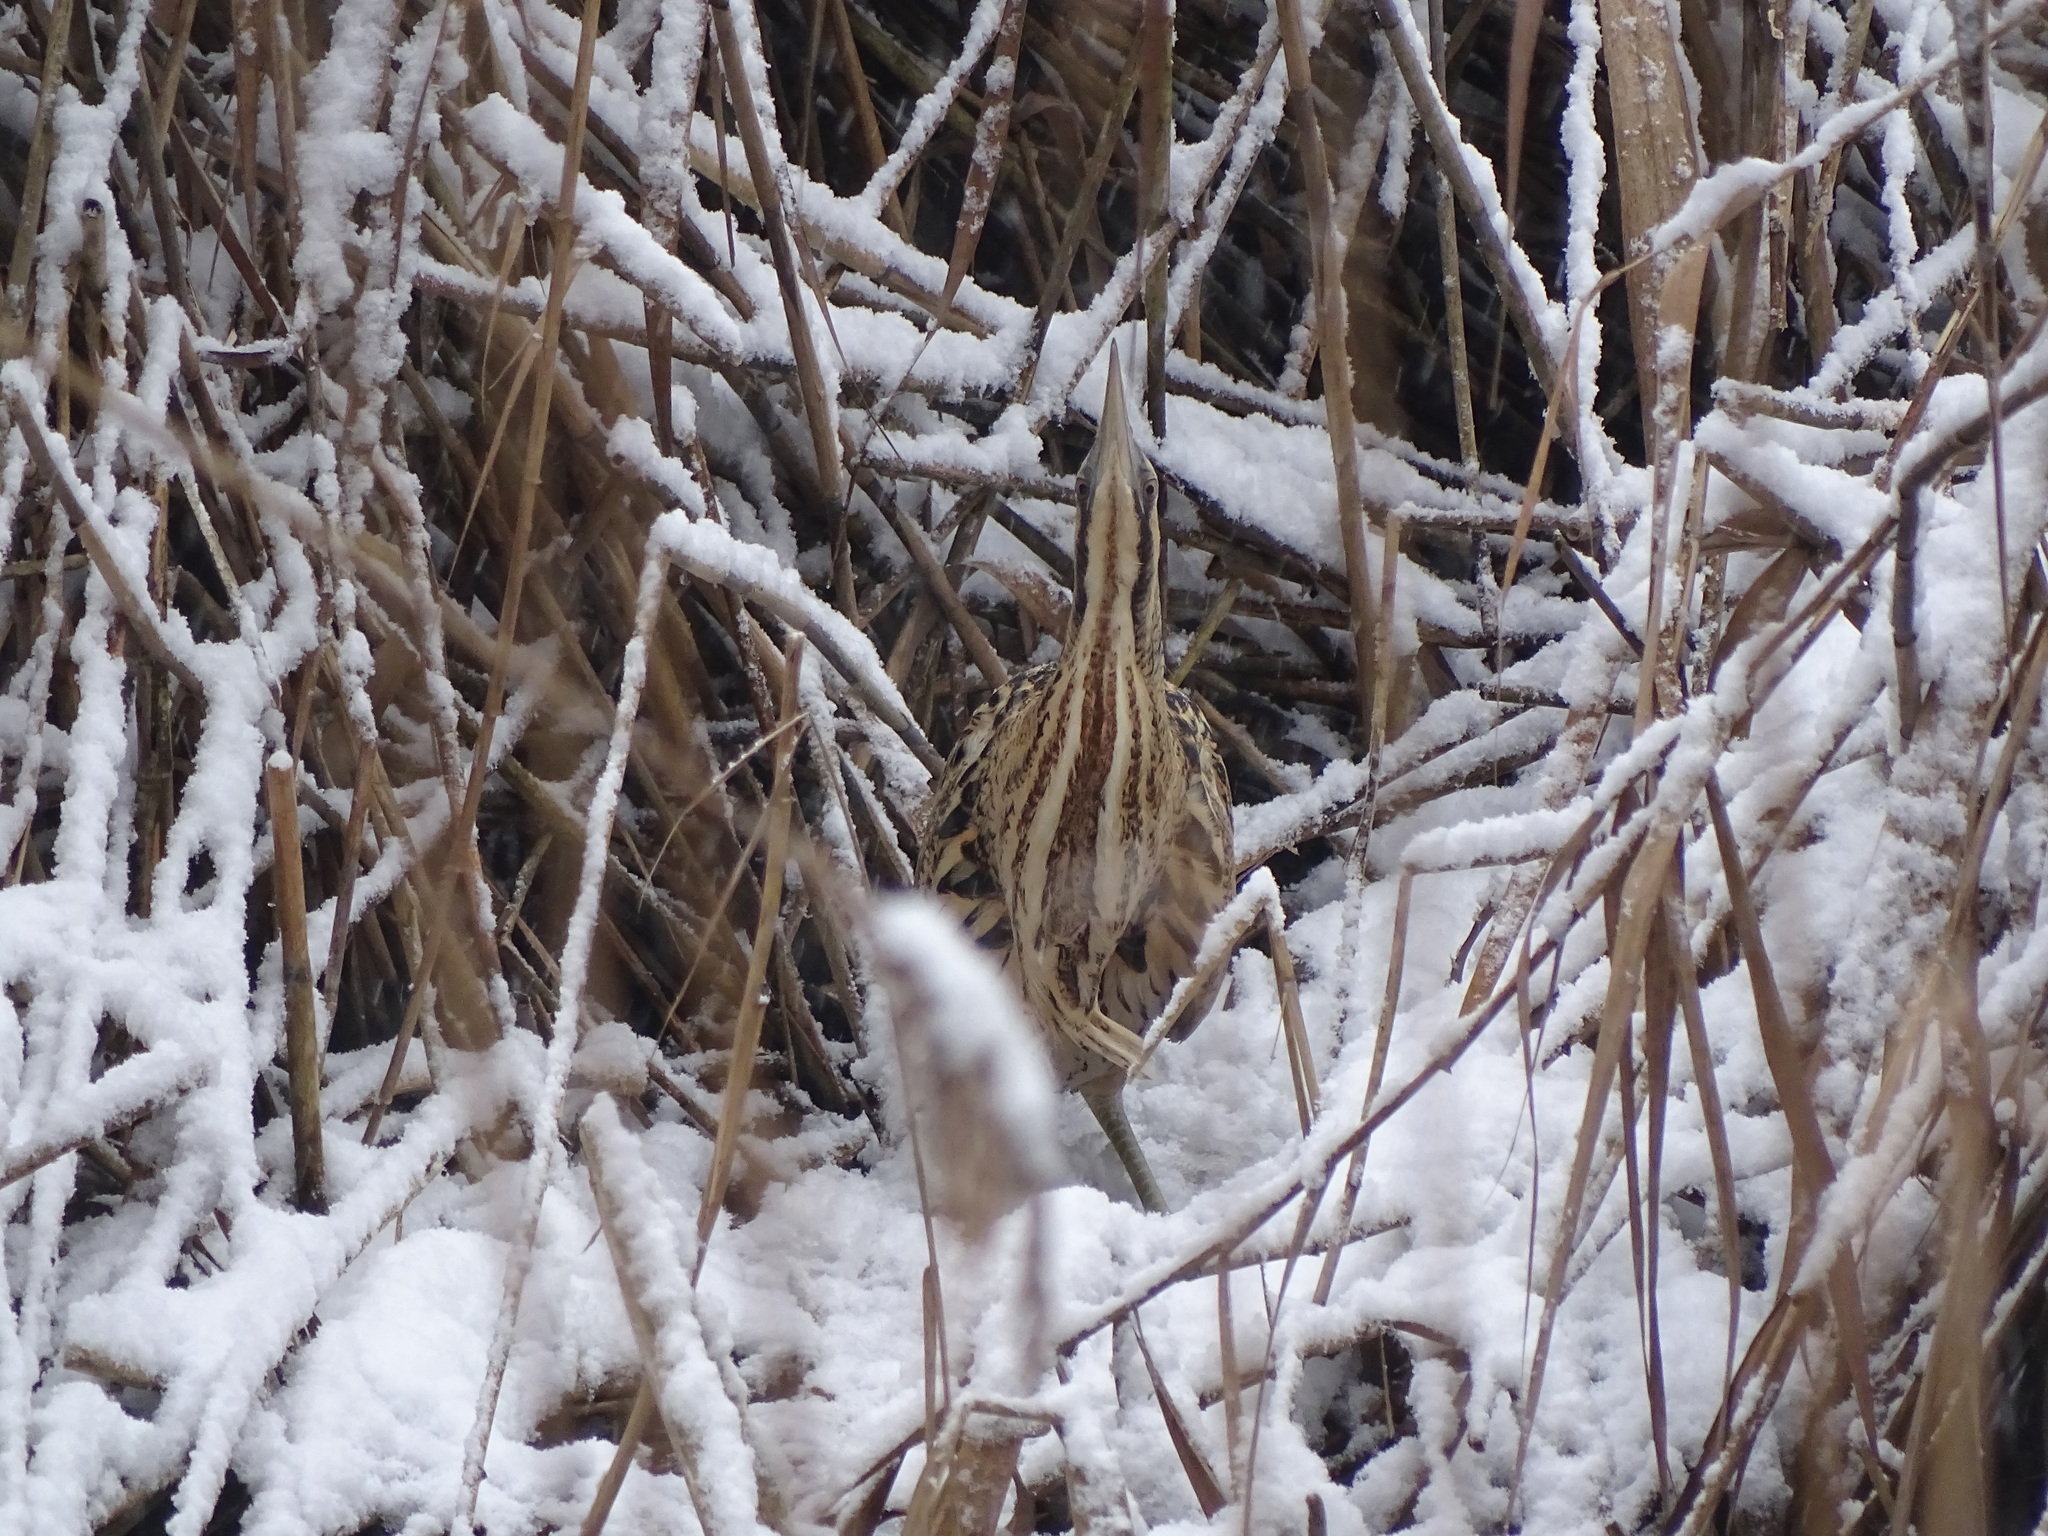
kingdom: Animalia
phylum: Chordata
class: Aves
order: Pelecaniformes
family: Ardeidae
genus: Botaurus
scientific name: Botaurus stellaris
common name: Eurasian bittern
